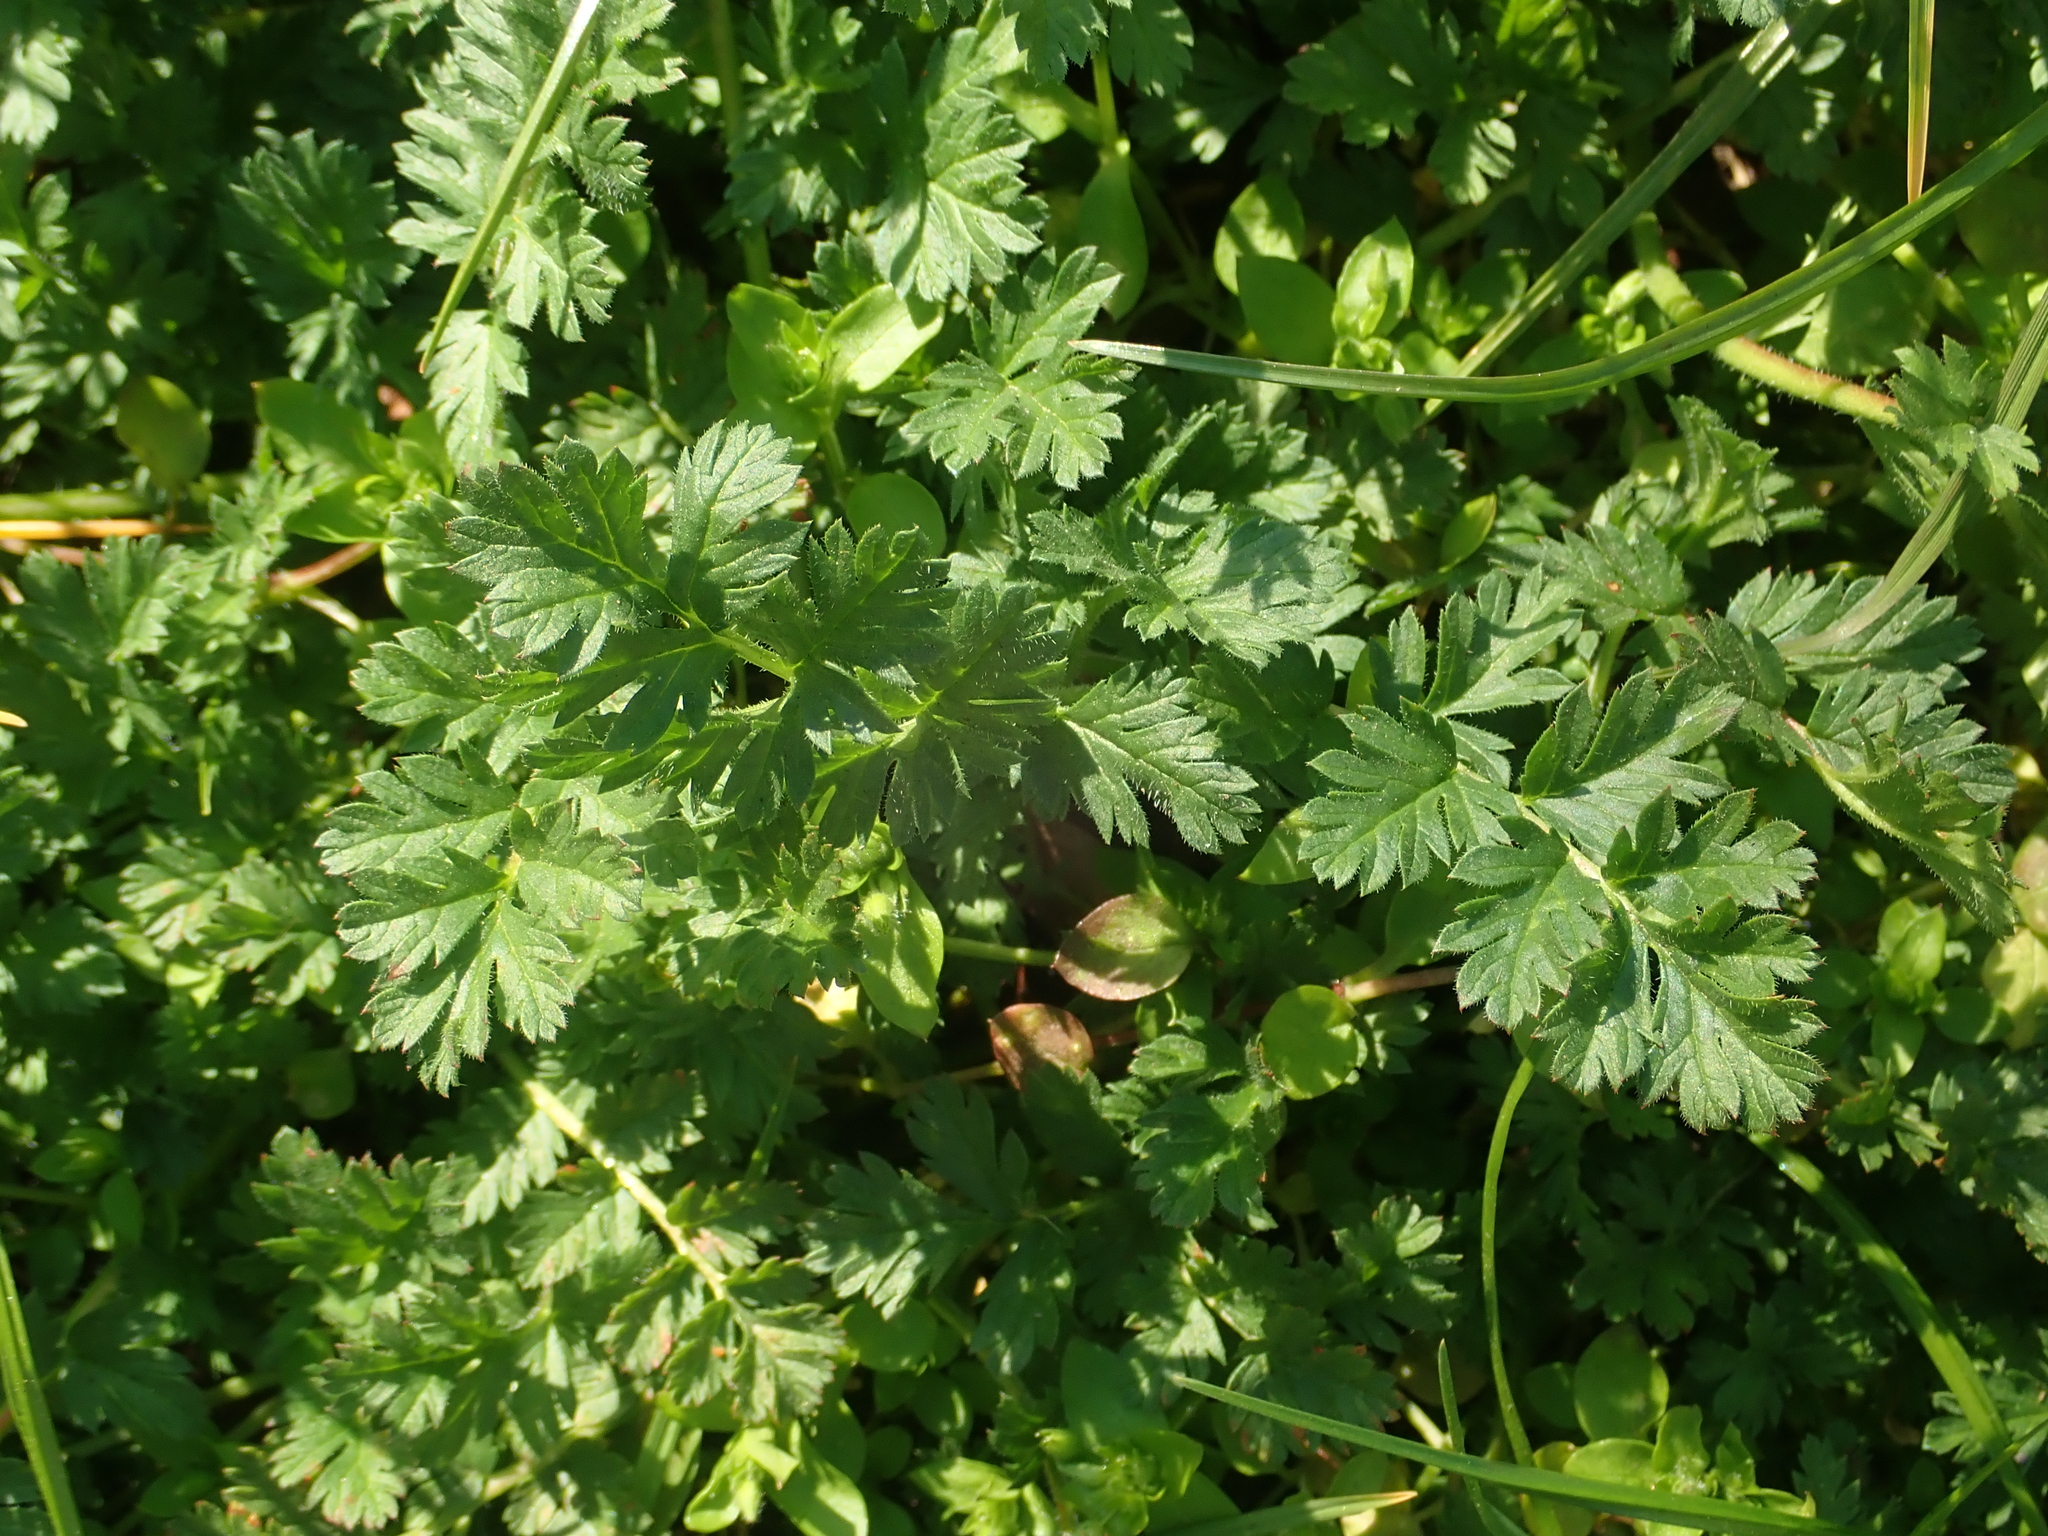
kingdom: Plantae
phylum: Tracheophyta
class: Magnoliopsida
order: Geraniales
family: Geraniaceae
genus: Erodium
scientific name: Erodium cicutarium
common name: Common stork's-bill
